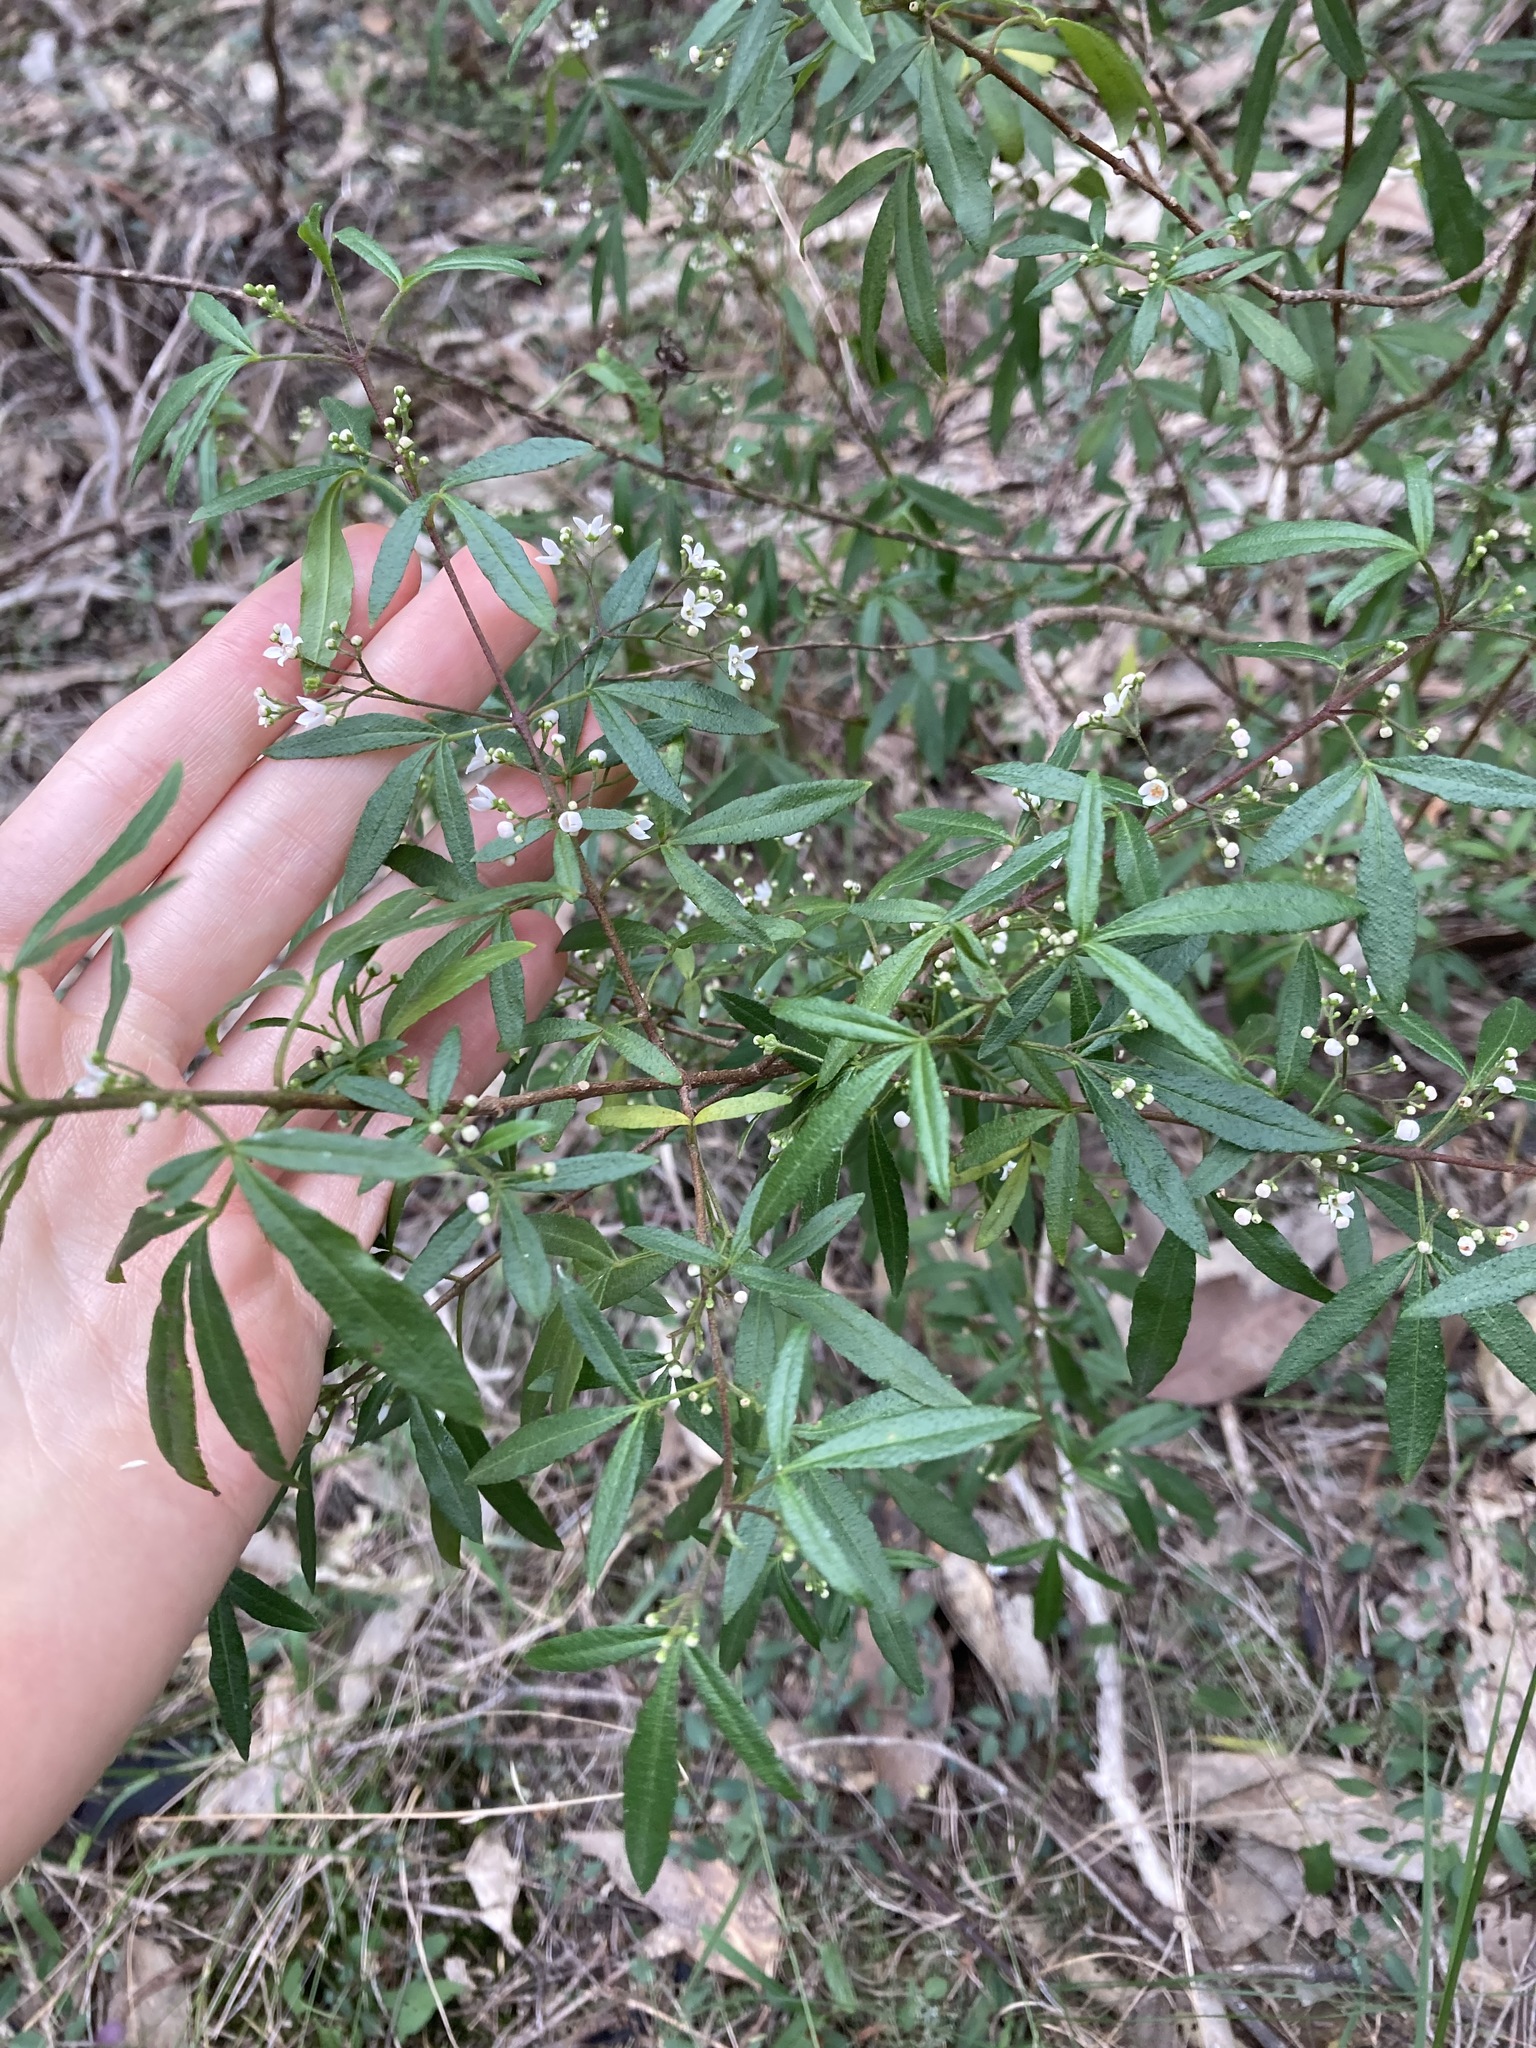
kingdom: Plantae
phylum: Tracheophyta
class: Magnoliopsida
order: Sapindales
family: Rutaceae
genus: Zieria
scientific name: Zieria smithii
